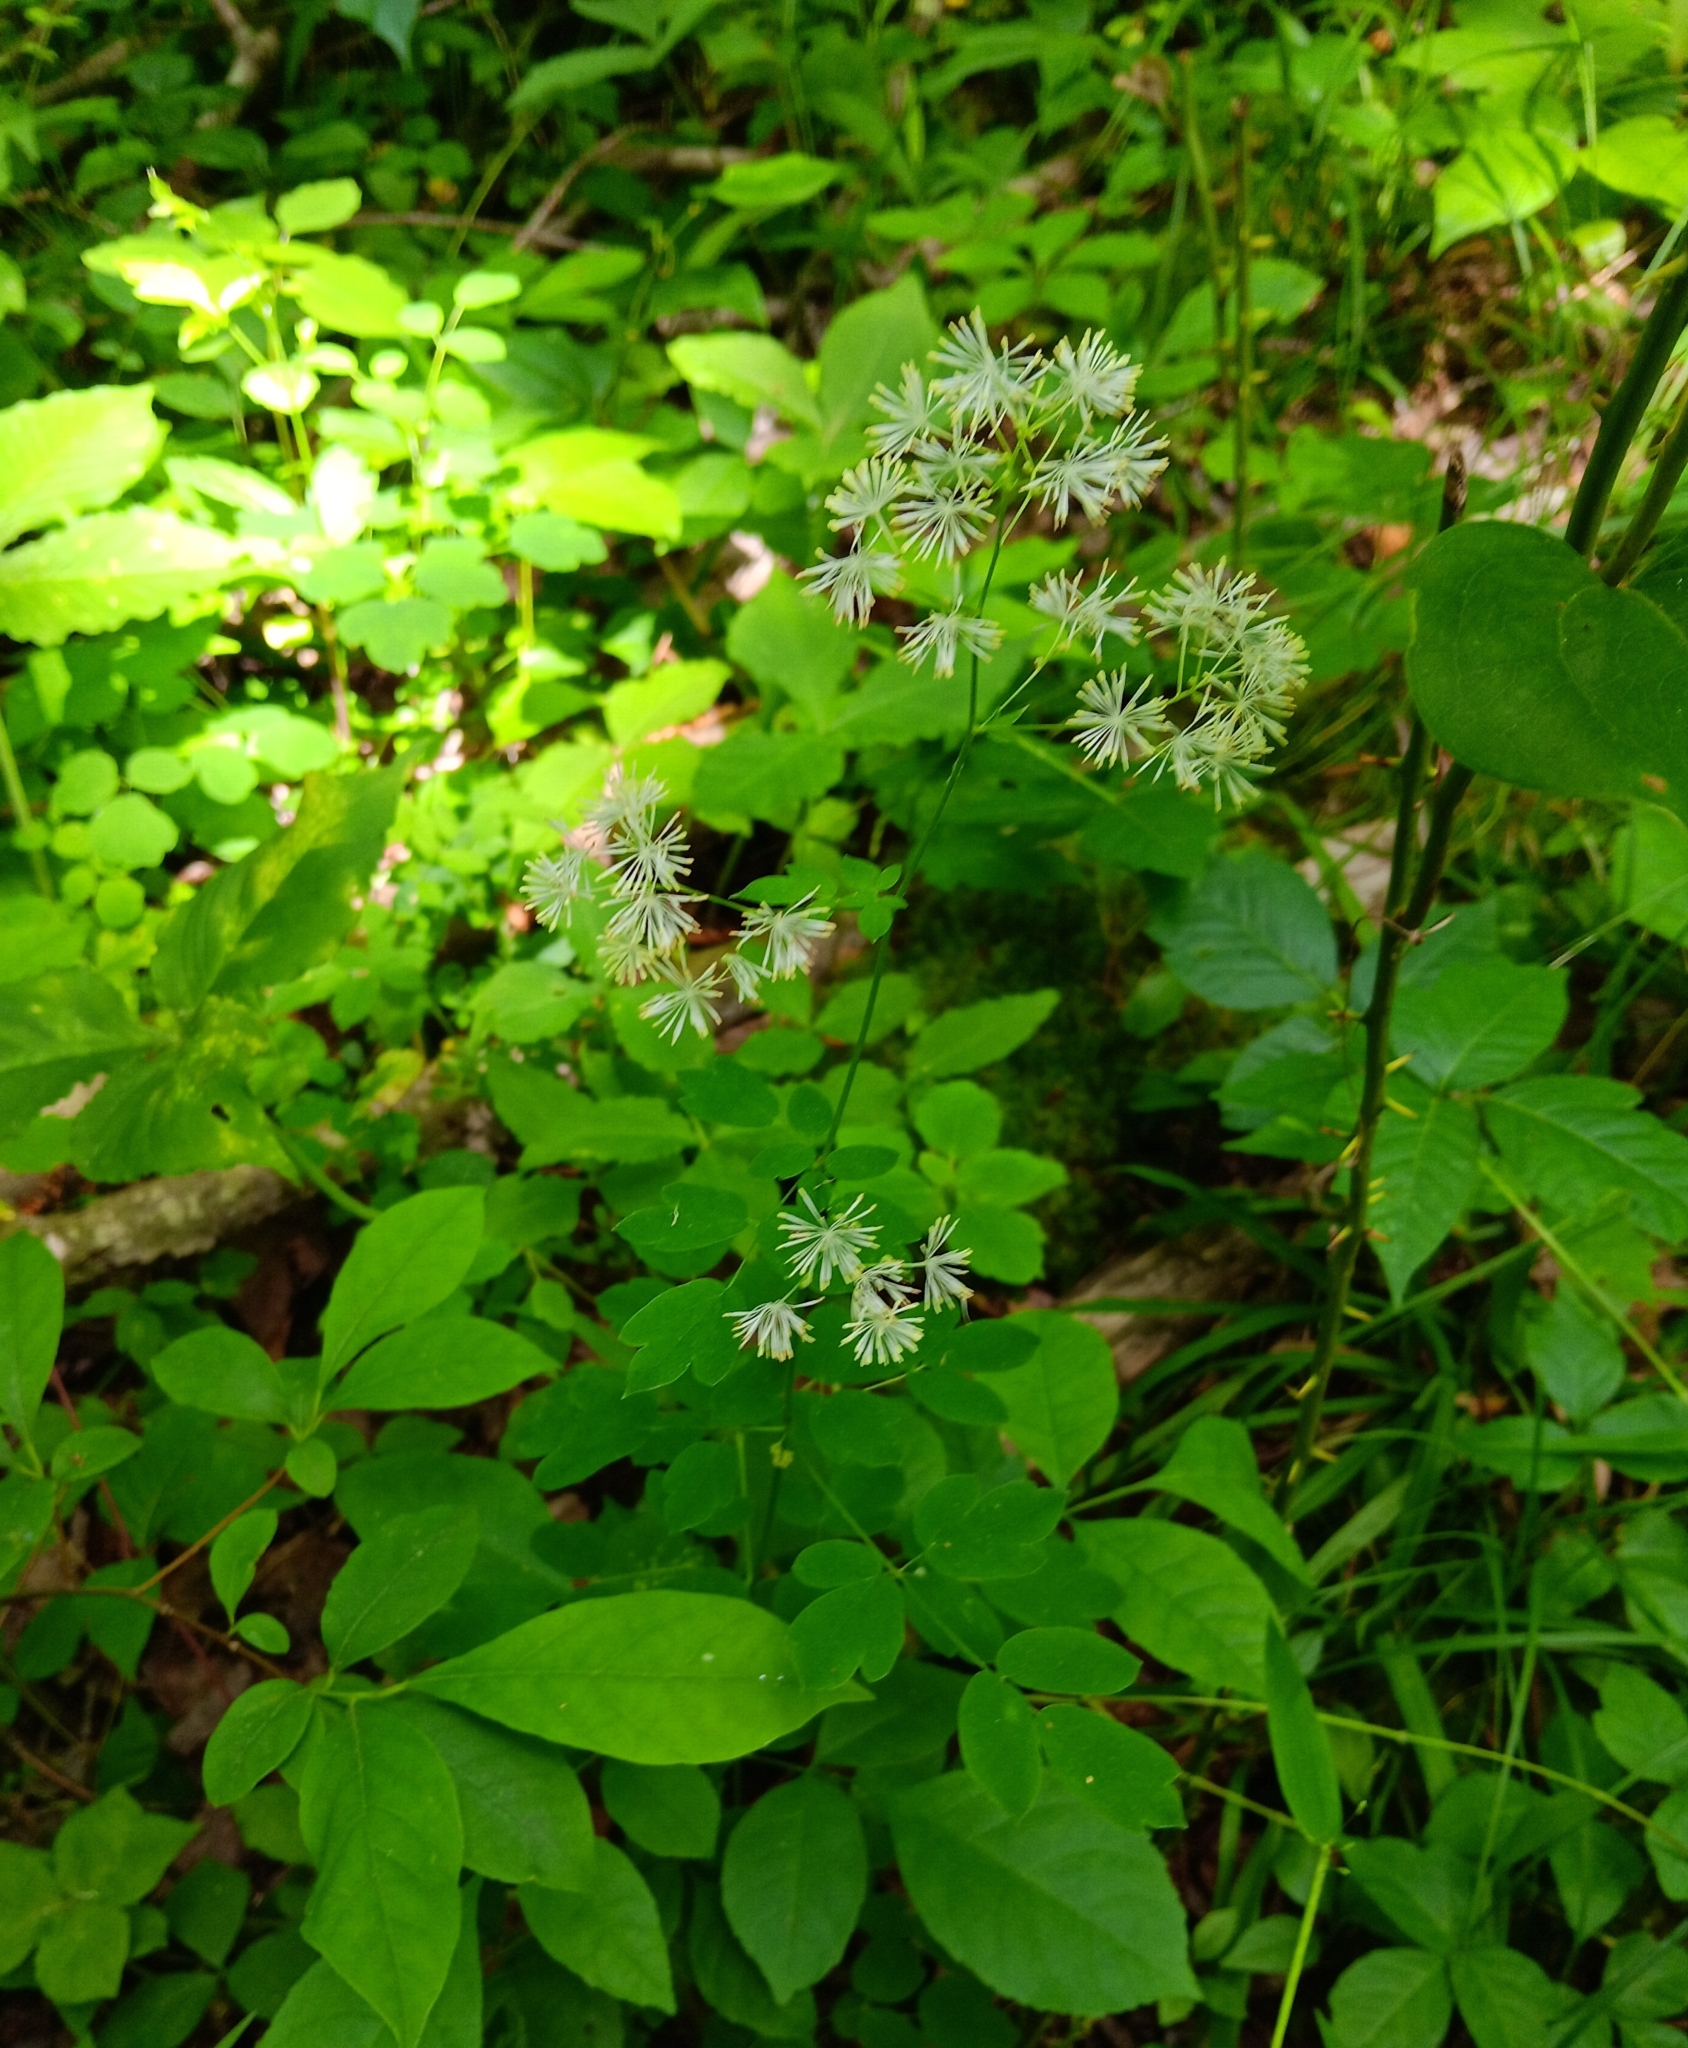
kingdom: Plantae
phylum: Tracheophyta
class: Magnoliopsida
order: Ranunculales
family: Ranunculaceae
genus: Thalictrum
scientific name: Thalictrum pubescens
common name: King-of-the-meadow
